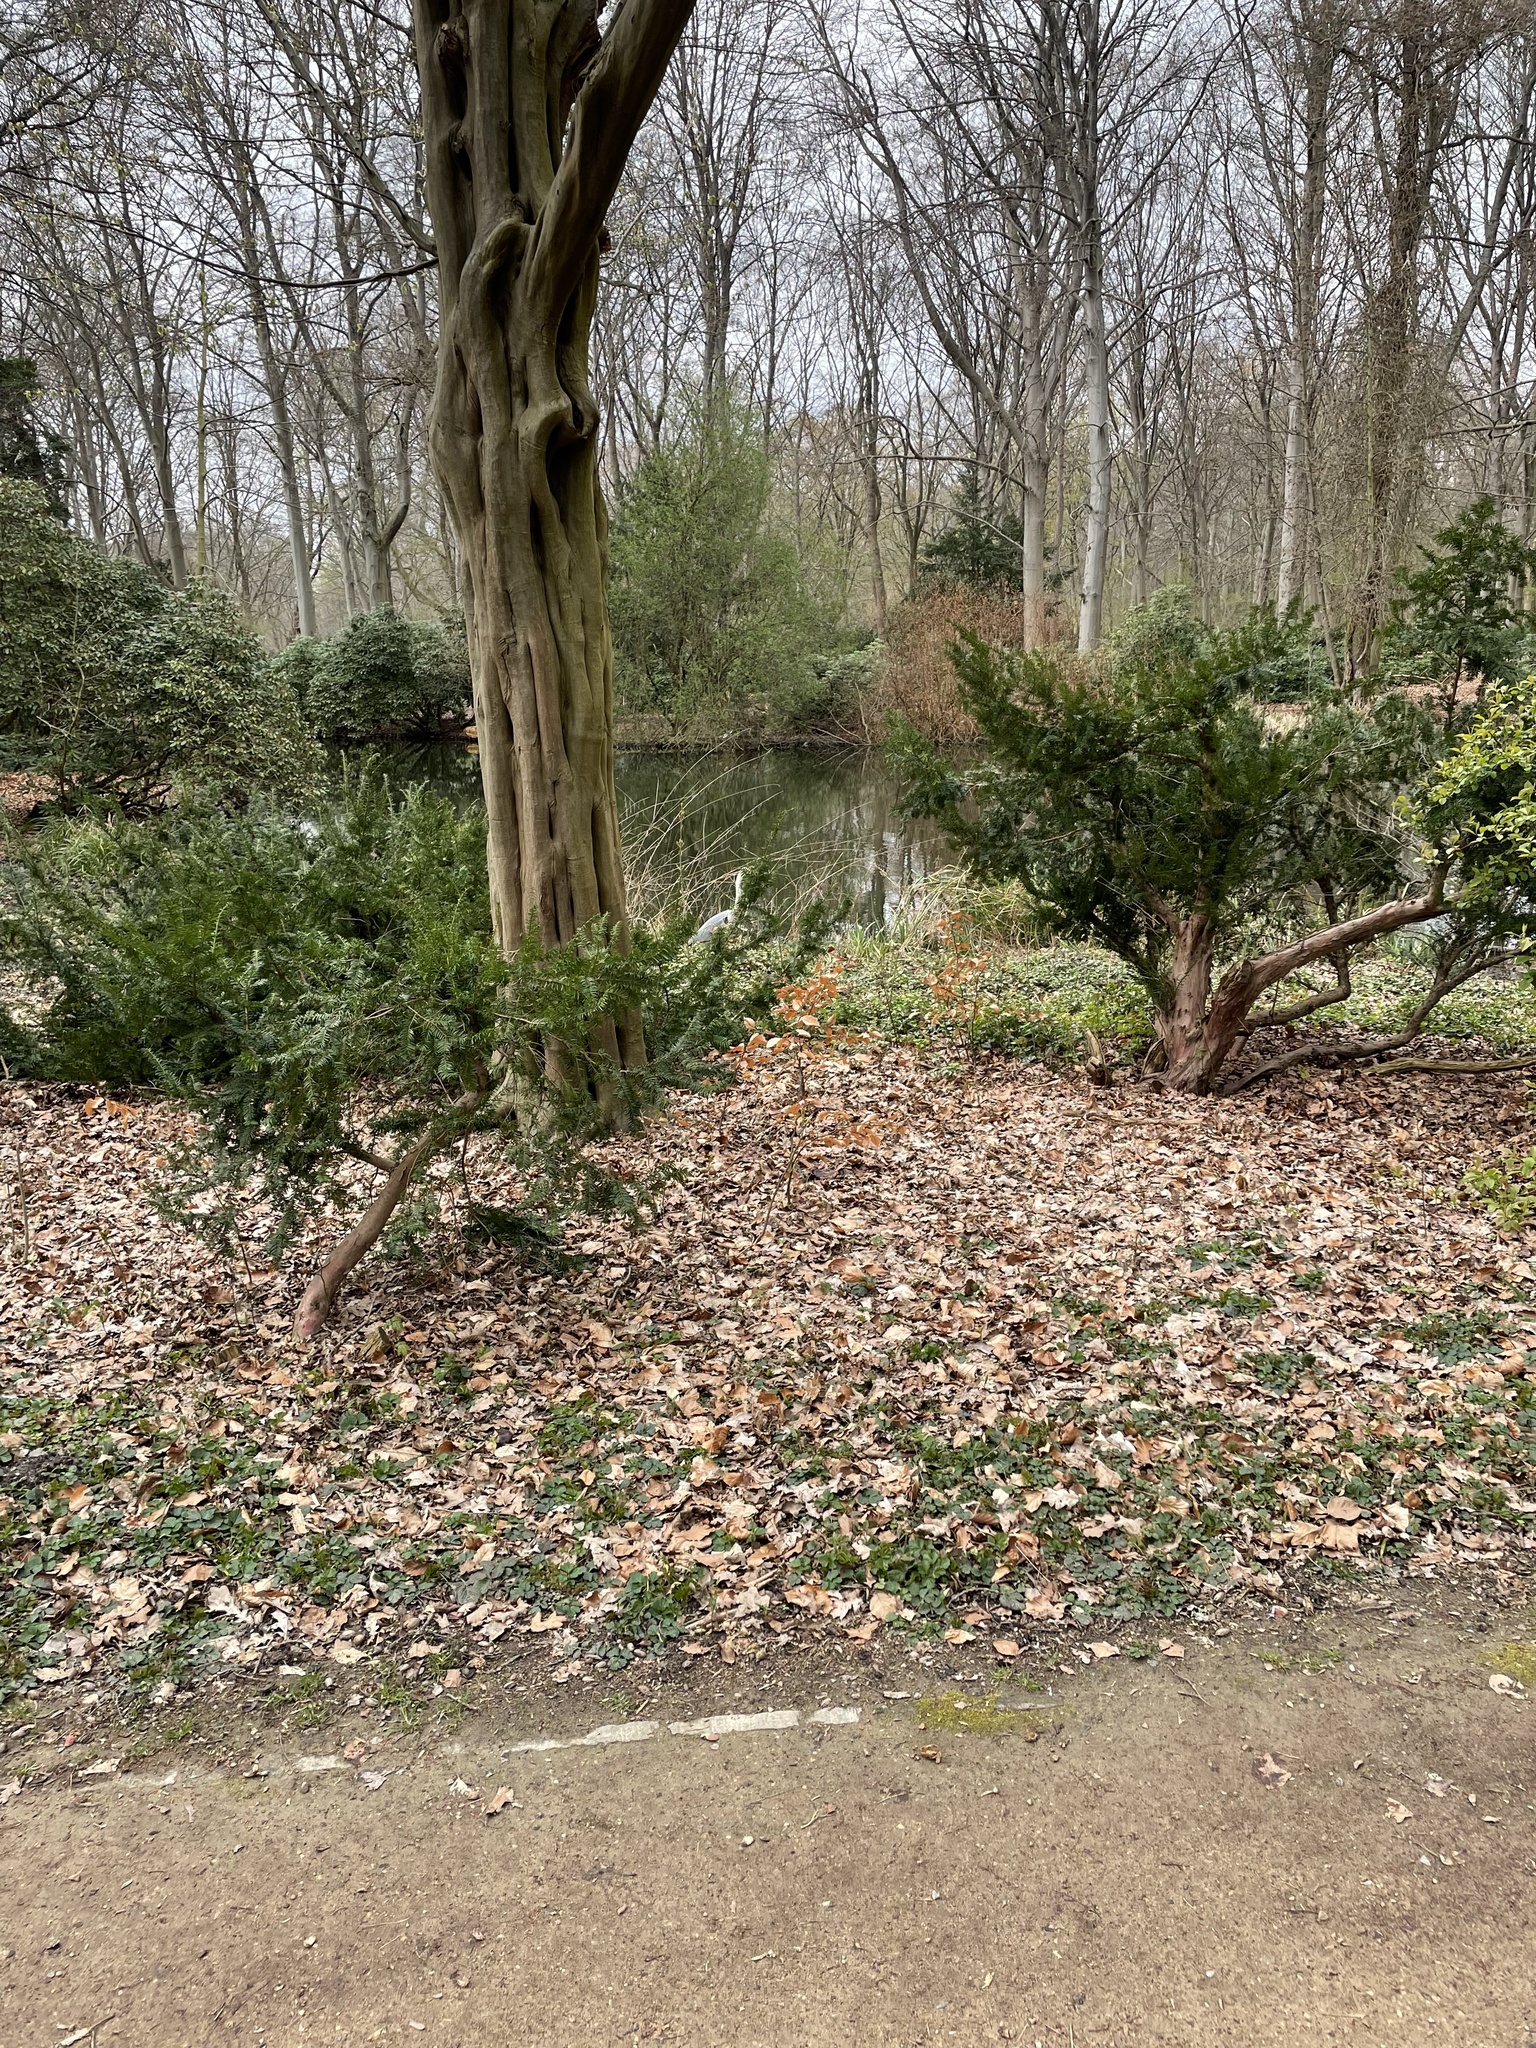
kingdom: Animalia
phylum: Chordata
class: Aves
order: Pelecaniformes
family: Ardeidae
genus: Ardea
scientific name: Ardea cinerea
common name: Grey heron
